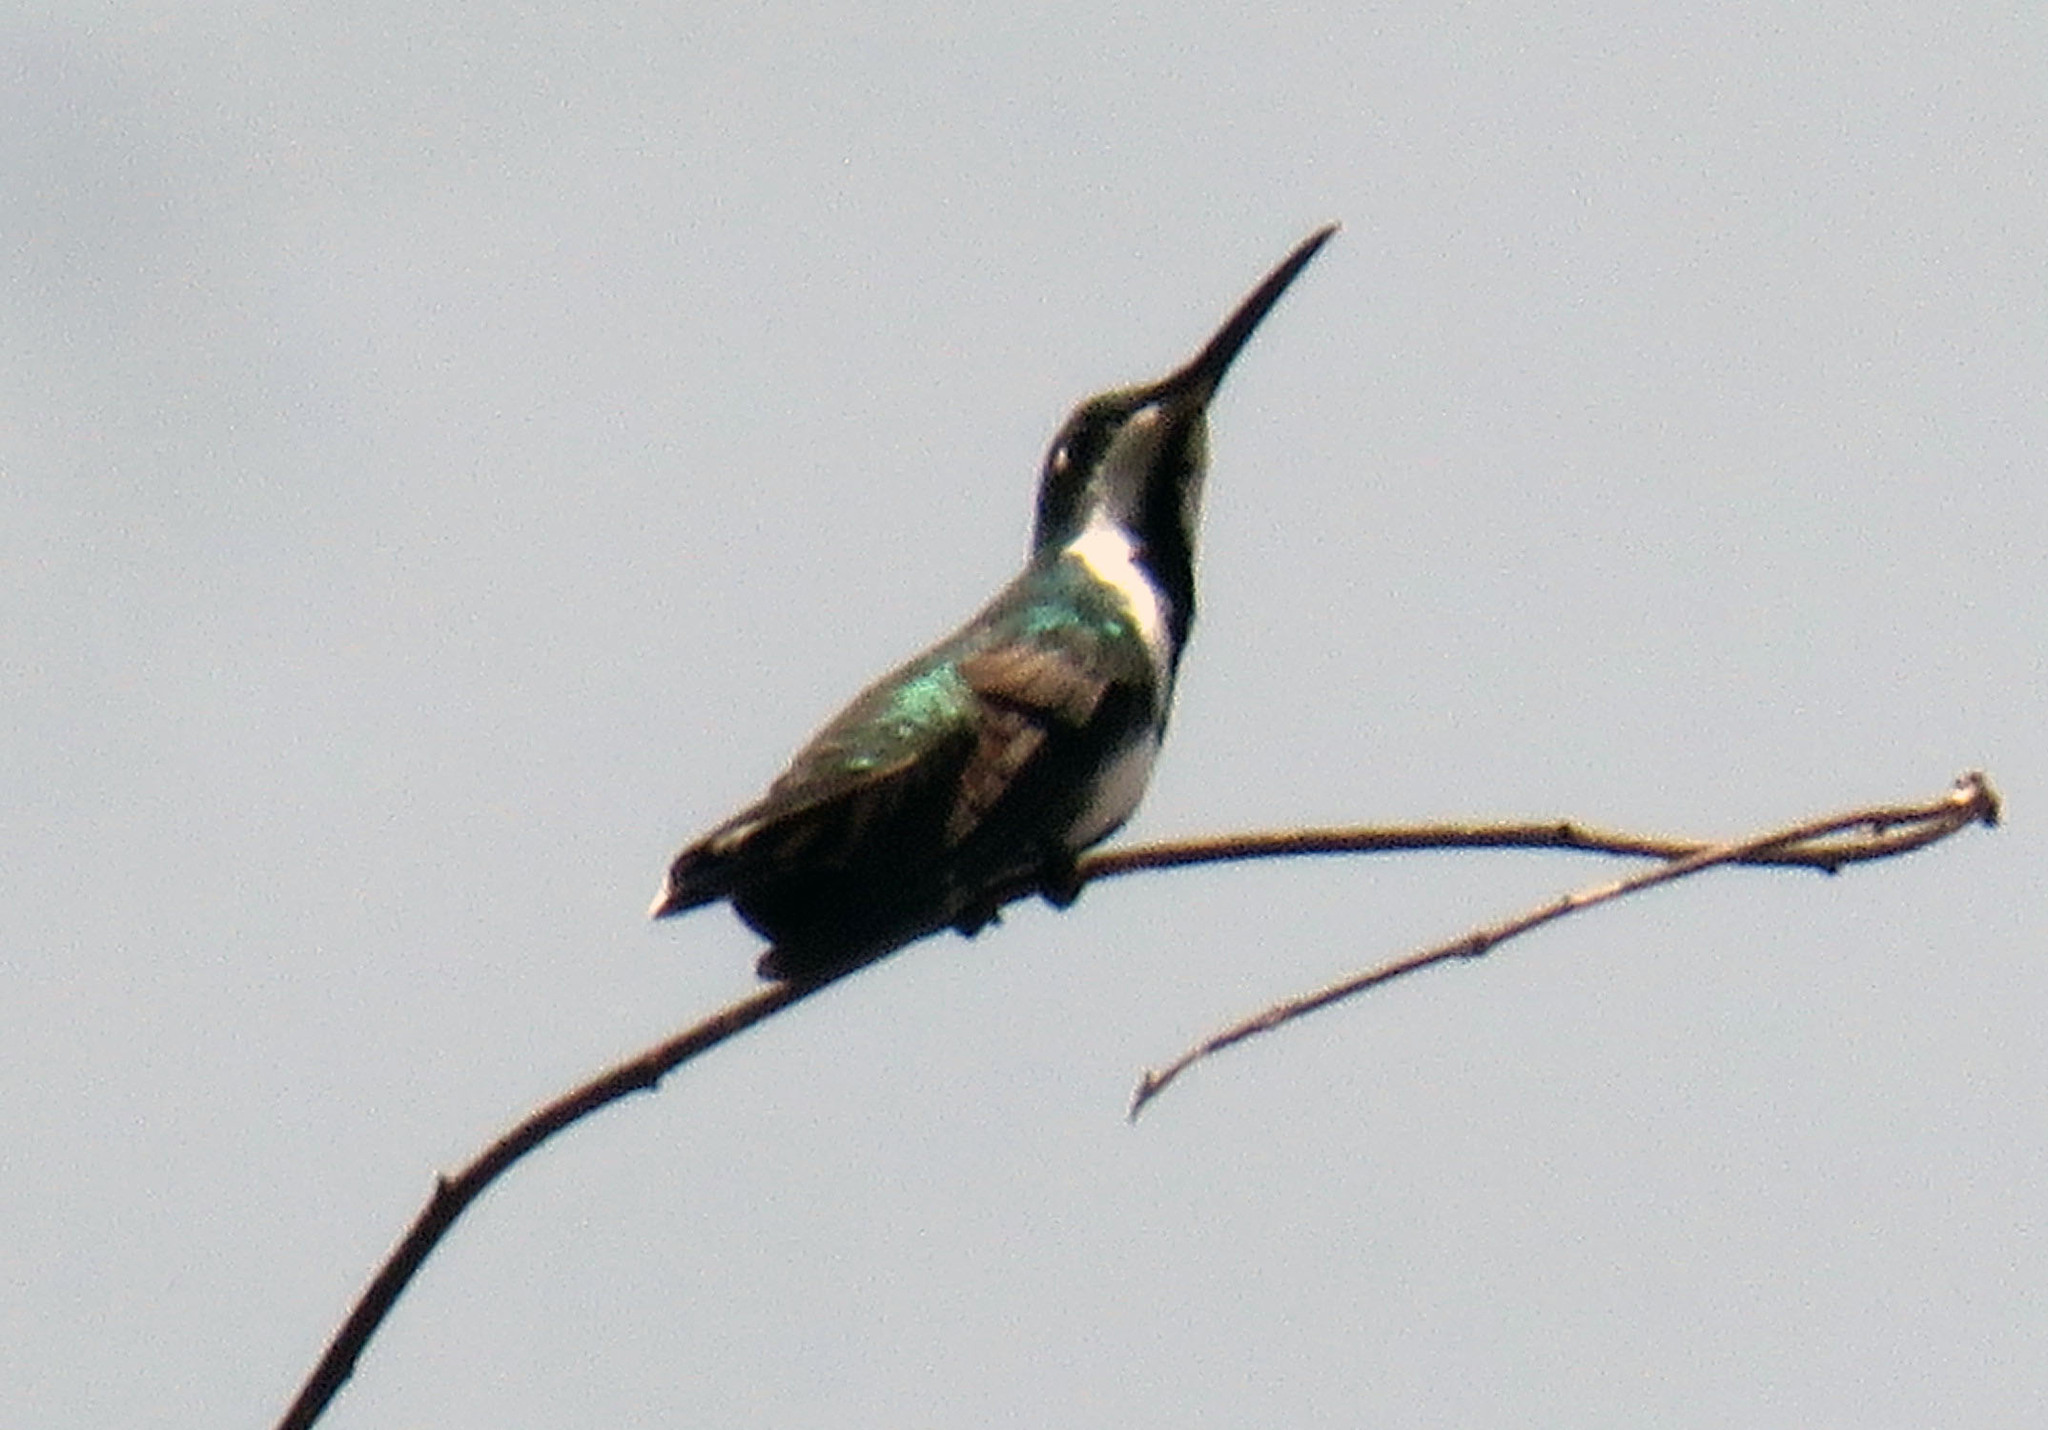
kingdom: Animalia
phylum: Chordata
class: Aves
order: Apodiformes
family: Trochilidae
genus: Anthracothorax
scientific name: Anthracothorax nigricollis
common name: Black-throated mango
